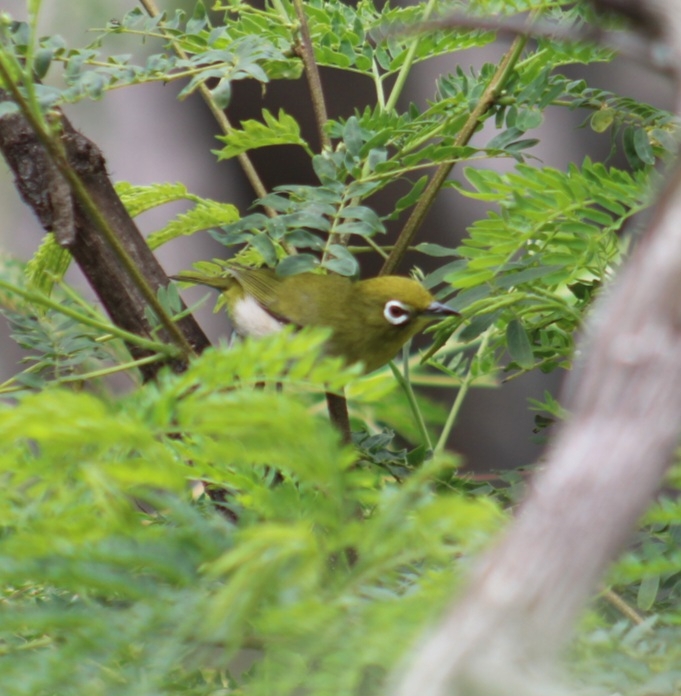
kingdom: Animalia
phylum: Chordata
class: Aves
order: Passeriformes
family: Zosteropidae
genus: Zosterops
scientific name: Zosterops japonicus
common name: Japanese white-eye
